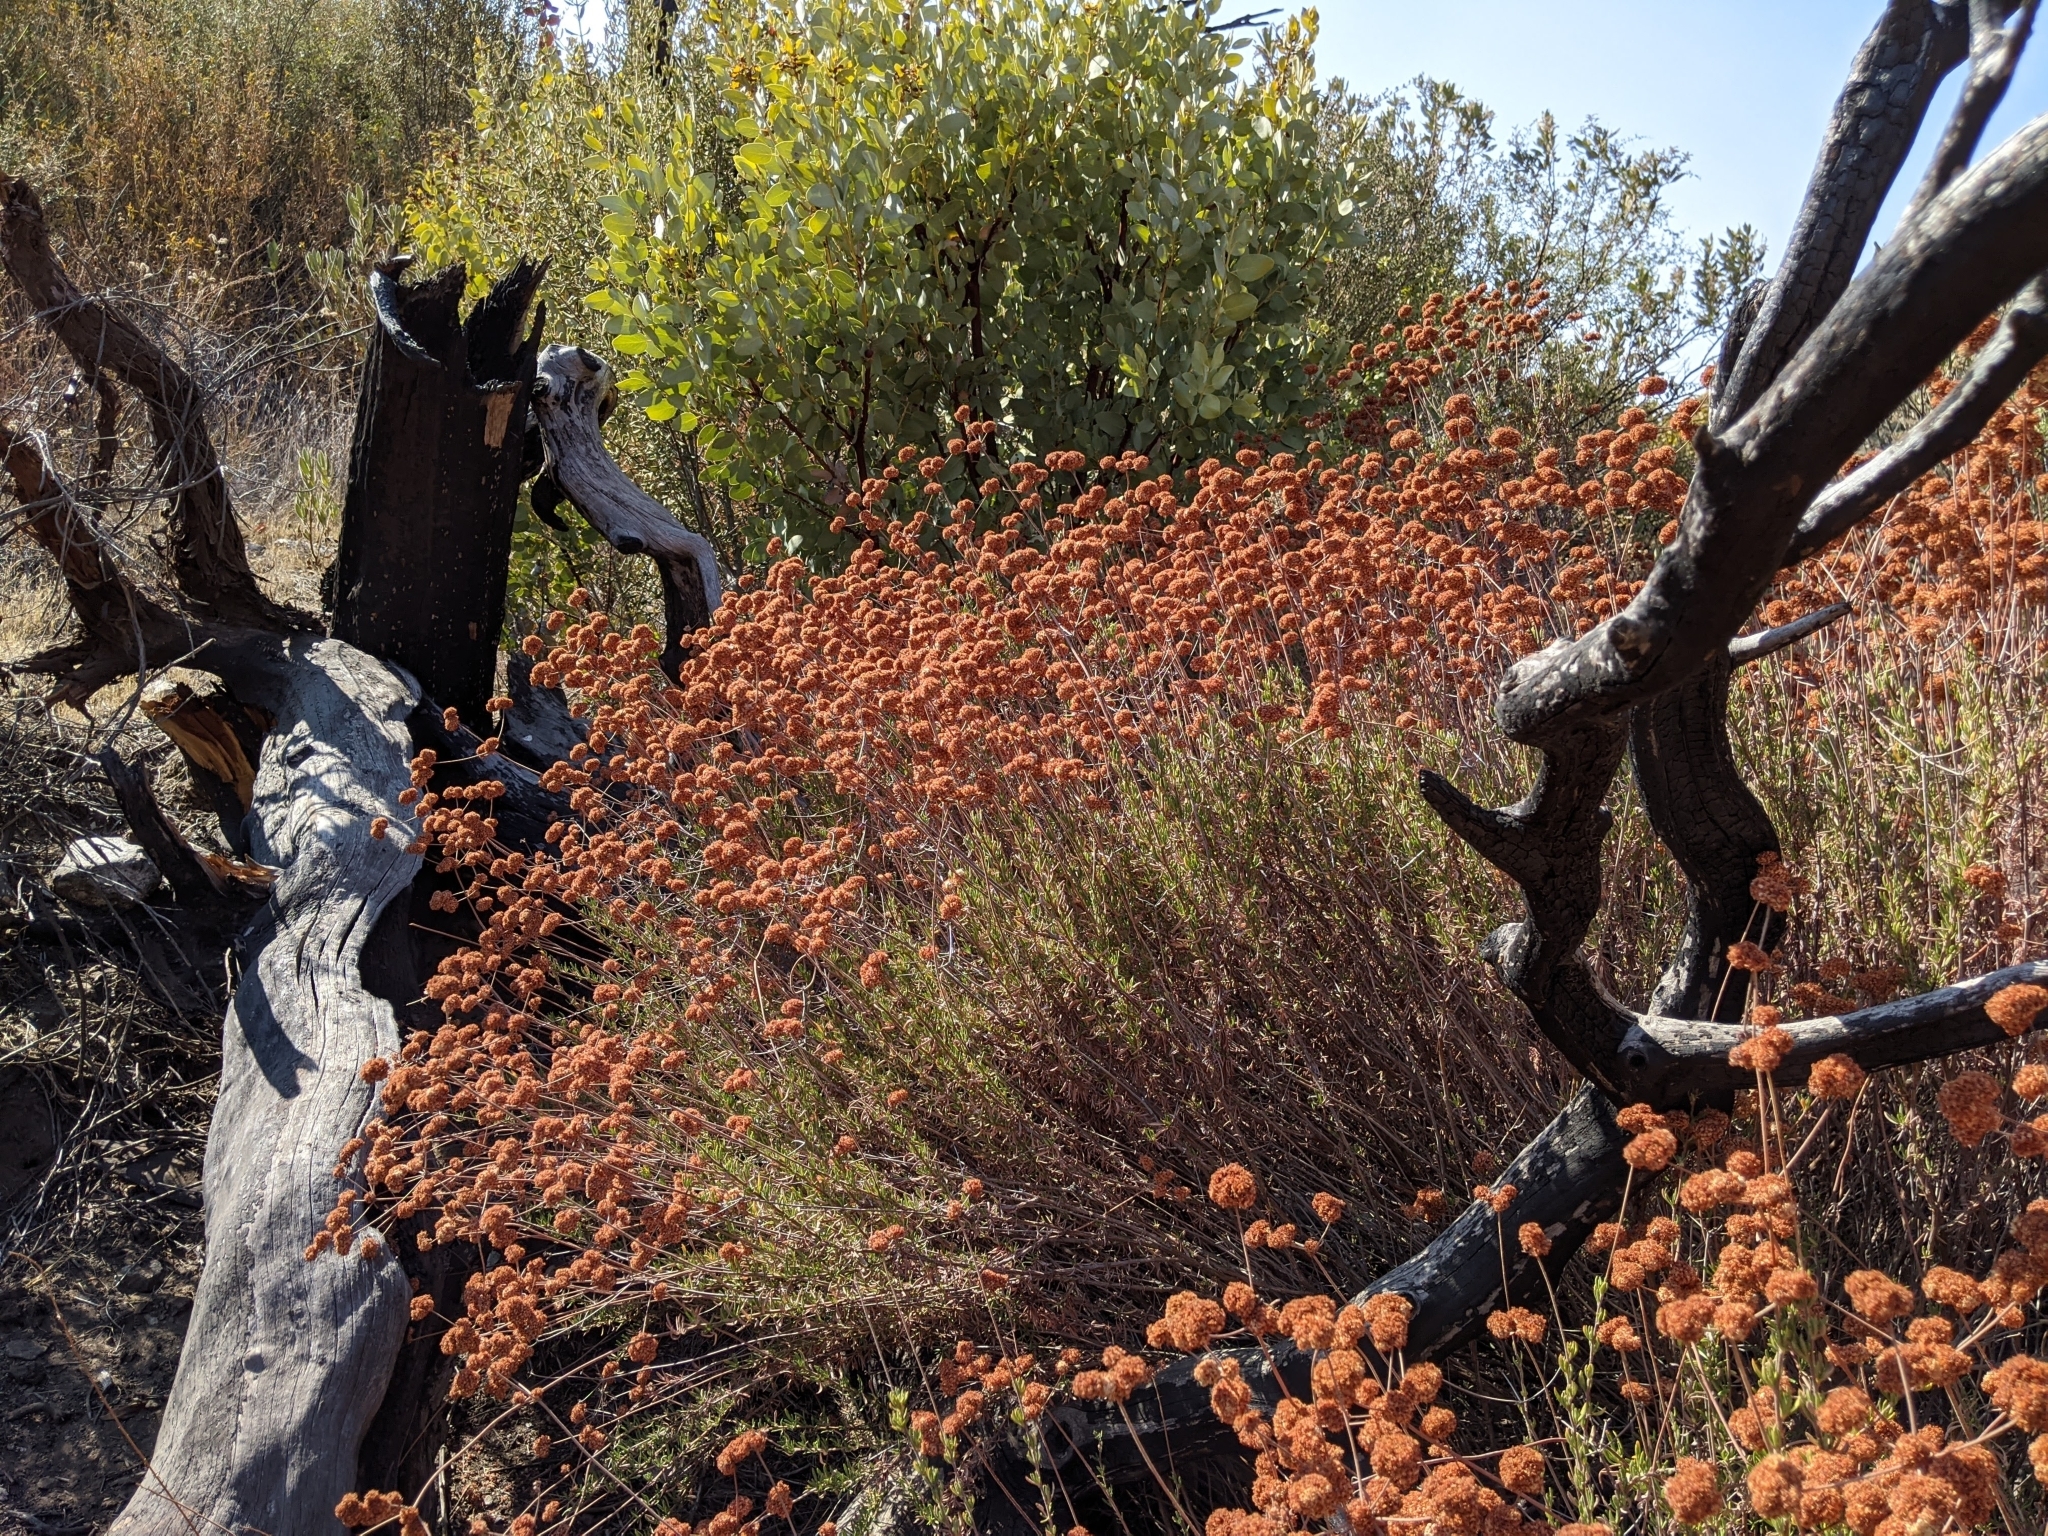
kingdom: Plantae
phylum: Tracheophyta
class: Magnoliopsida
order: Caryophyllales
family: Polygonaceae
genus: Eriogonum
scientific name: Eriogonum fasciculatum
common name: California wild buckwheat
